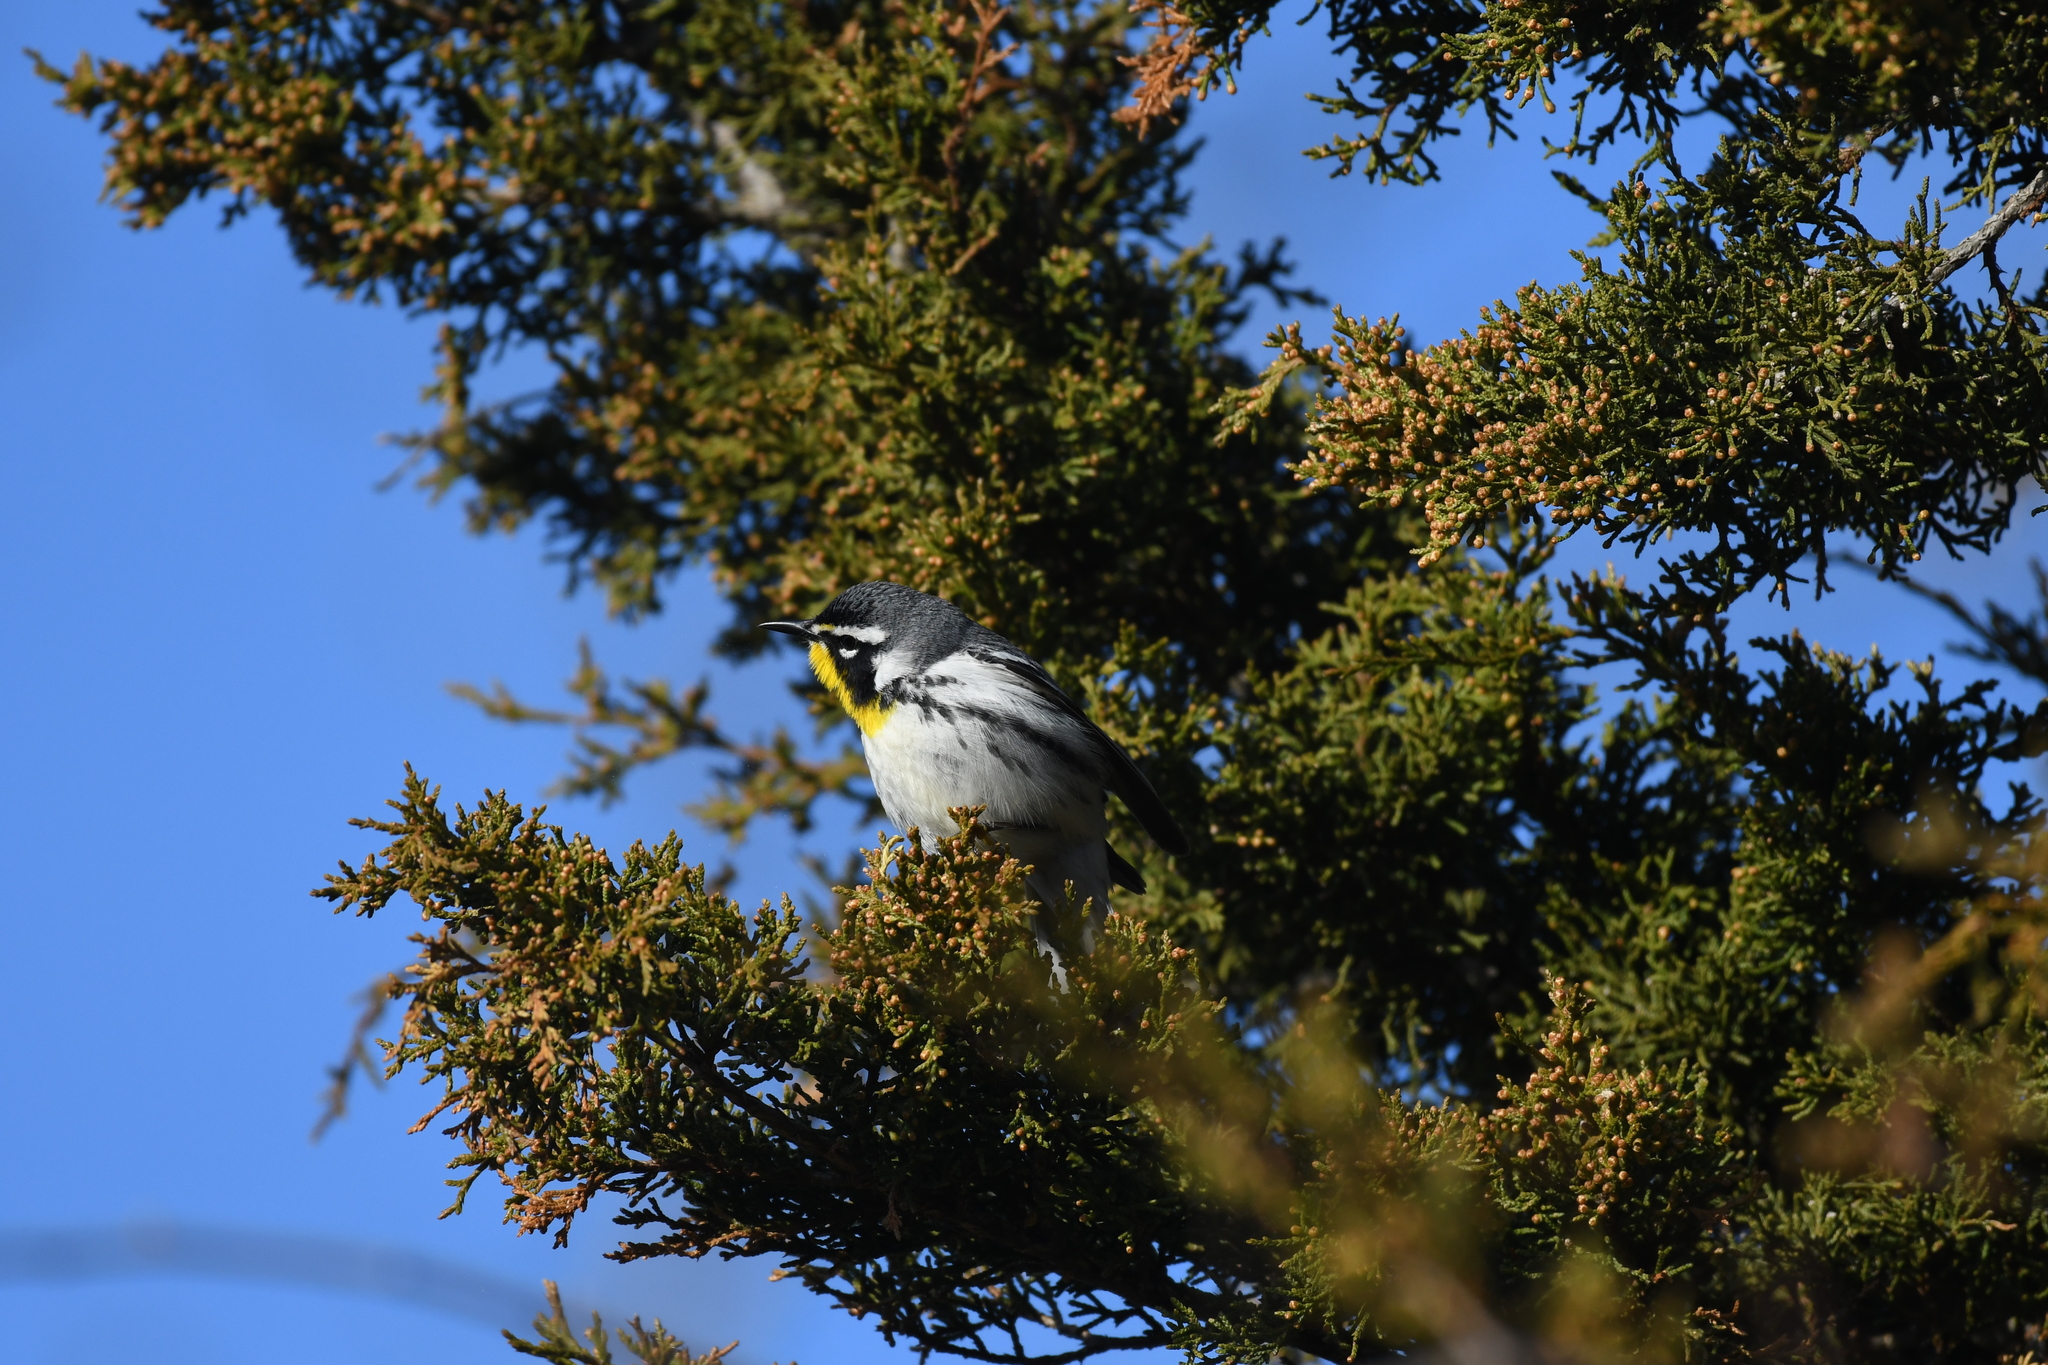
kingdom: Animalia
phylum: Chordata
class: Aves
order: Passeriformes
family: Parulidae
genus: Setophaga
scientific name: Setophaga dominica
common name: Yellow-throated warbler
